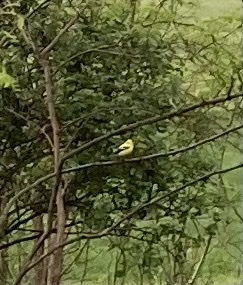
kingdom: Animalia
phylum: Chordata
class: Aves
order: Passeriformes
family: Fringillidae
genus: Spinus
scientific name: Spinus tristis
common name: American goldfinch
